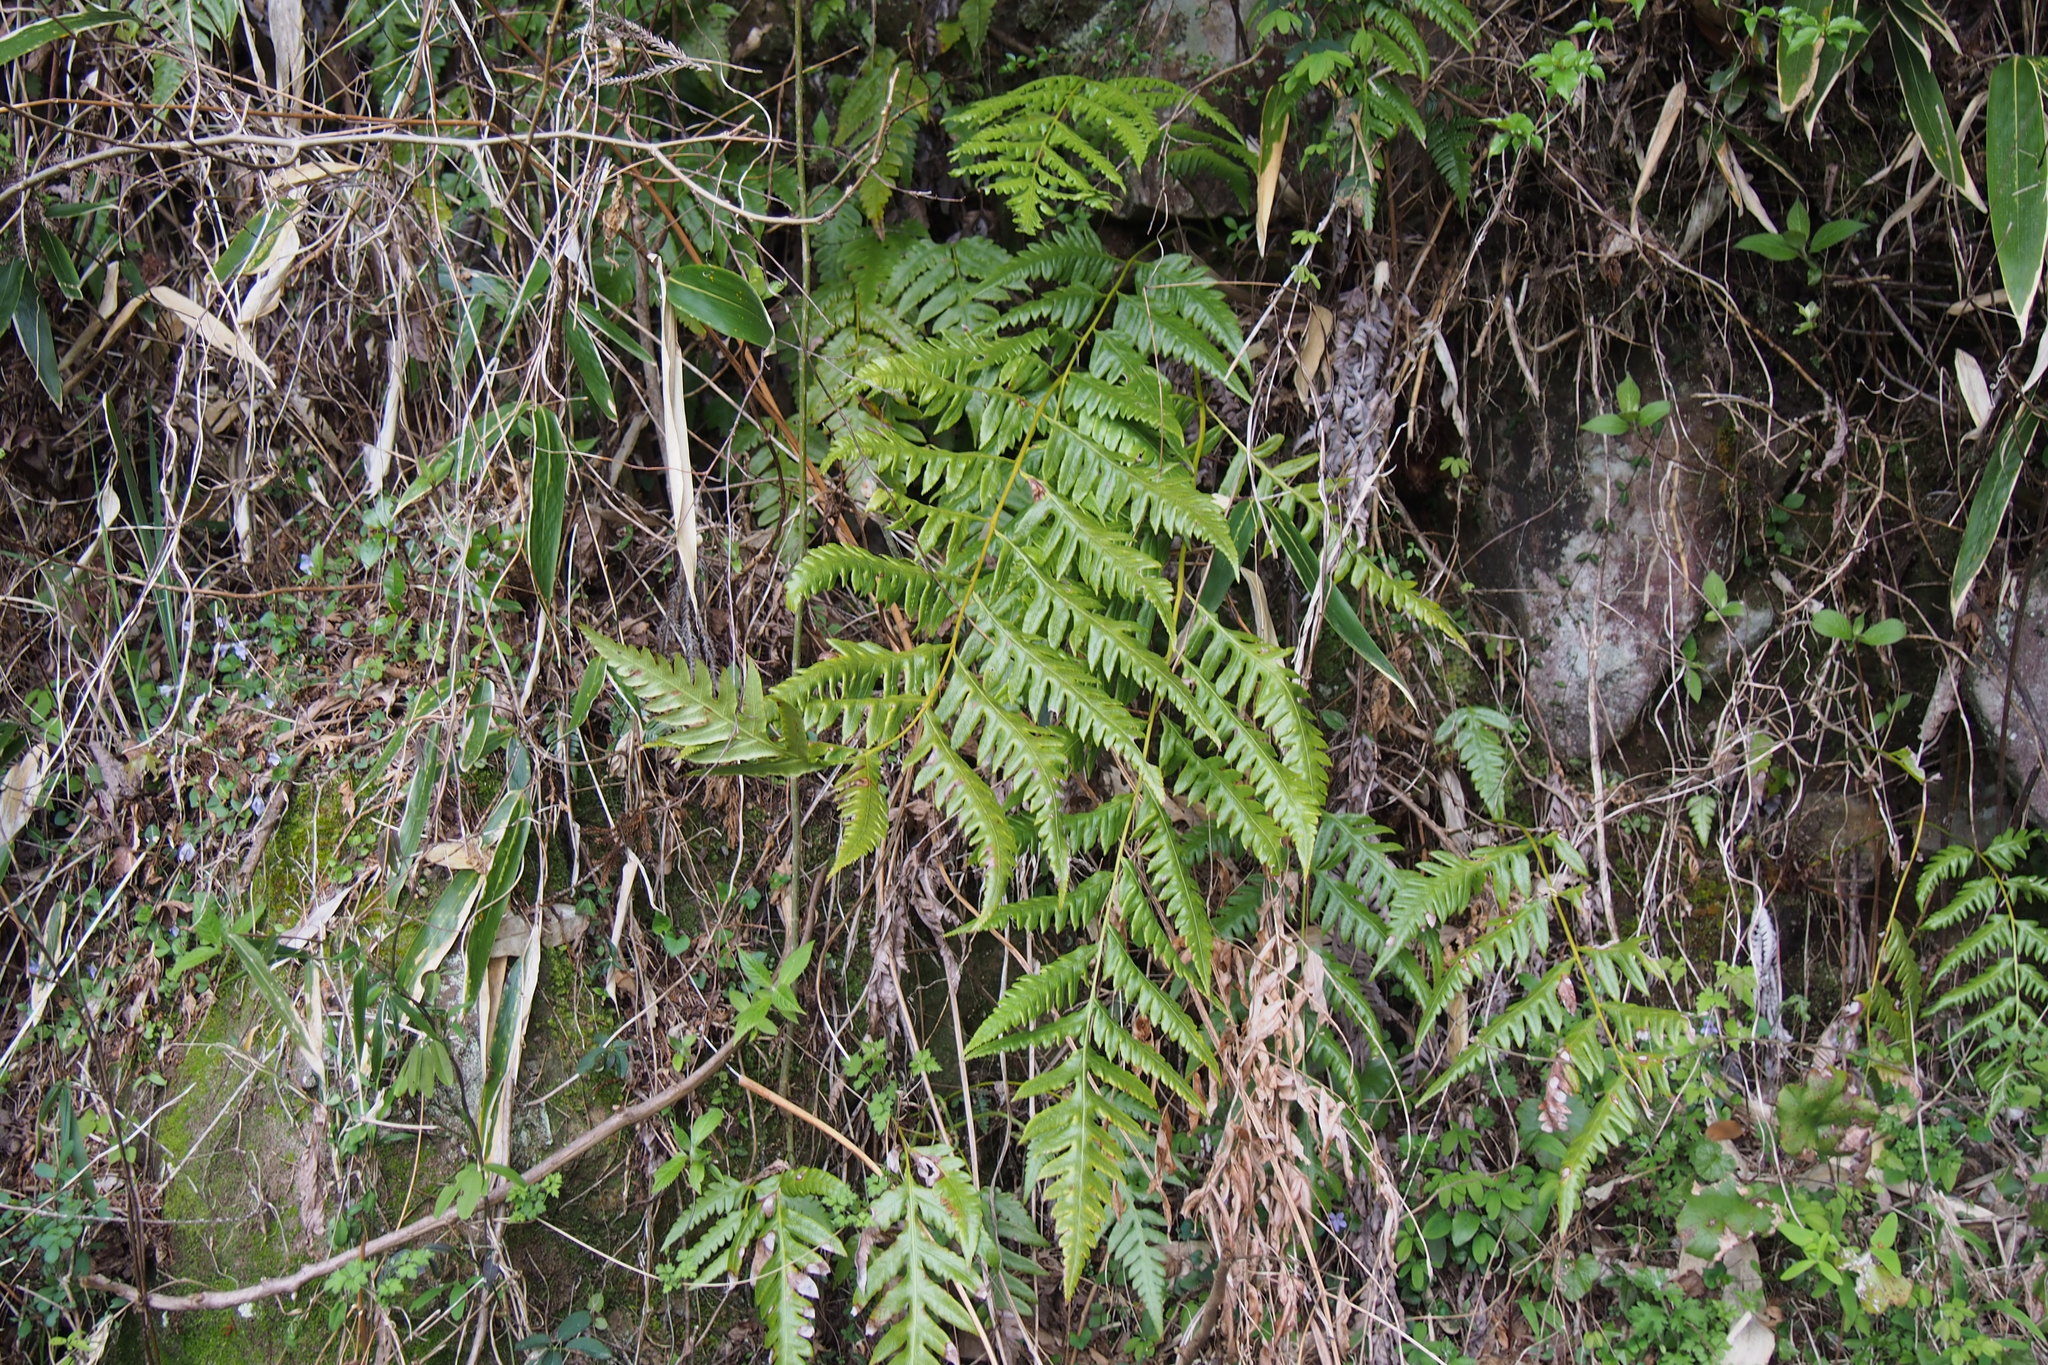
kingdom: Plantae
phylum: Tracheophyta
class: Polypodiopsida
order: Polypodiales
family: Blechnaceae
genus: Woodwardia
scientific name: Woodwardia orientalis
